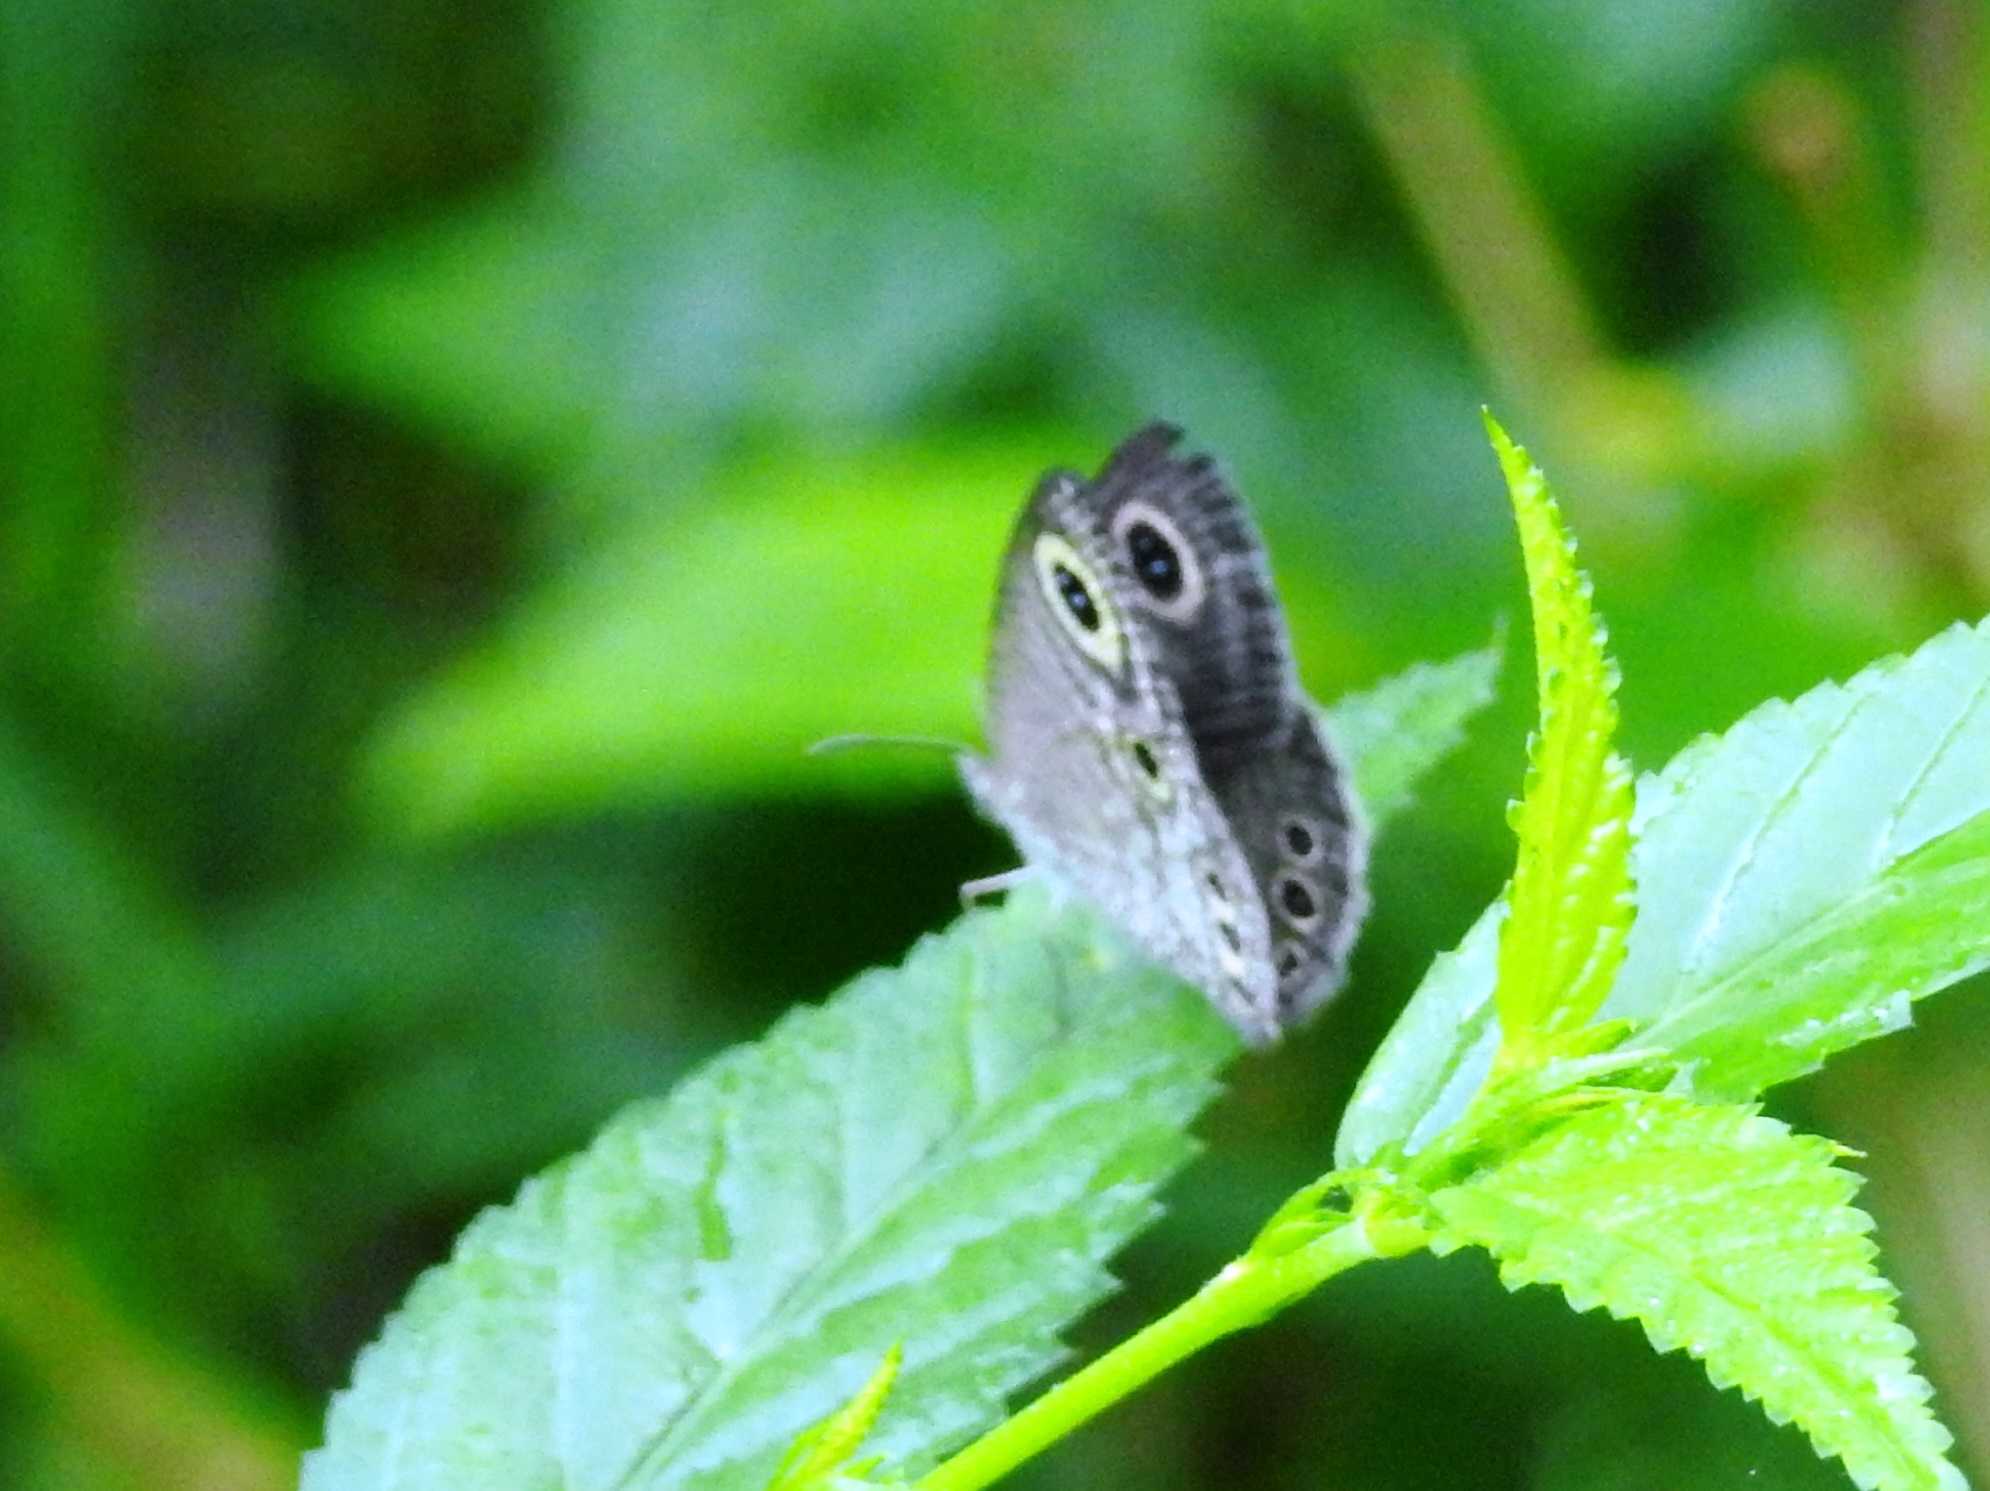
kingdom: Animalia
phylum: Arthropoda
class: Insecta
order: Lepidoptera
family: Nymphalidae
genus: Ypthima
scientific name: Ypthima huebneri
